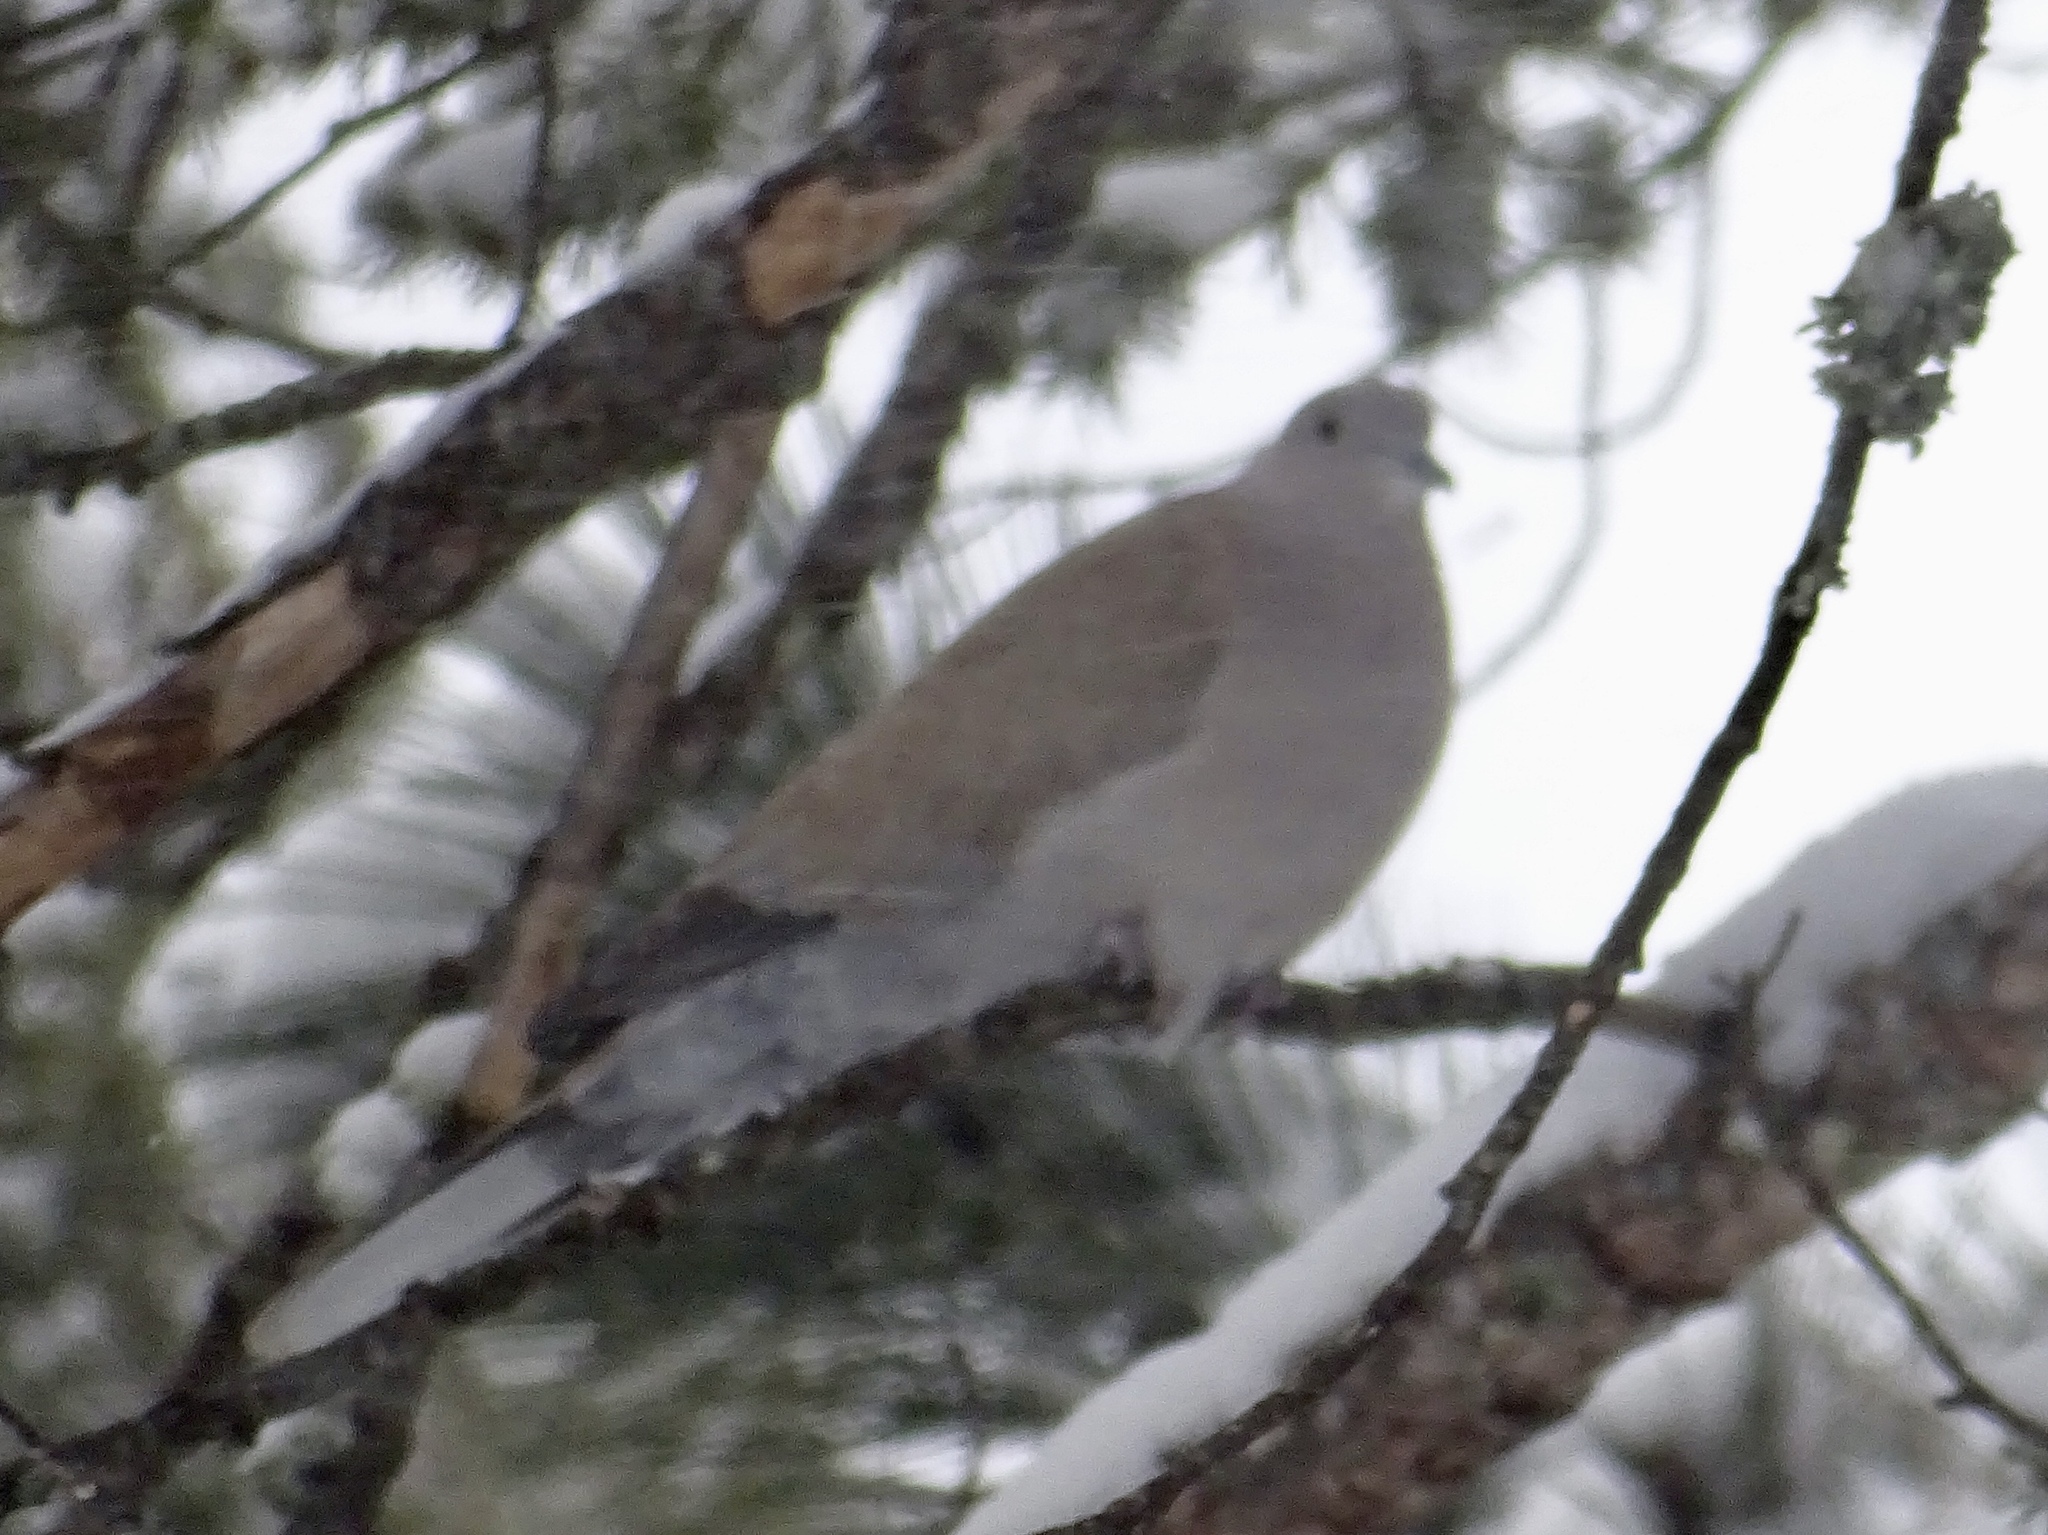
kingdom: Animalia
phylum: Chordata
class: Aves
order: Columbiformes
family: Columbidae
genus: Streptopelia
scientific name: Streptopelia decaocto
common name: Eurasian collared dove
